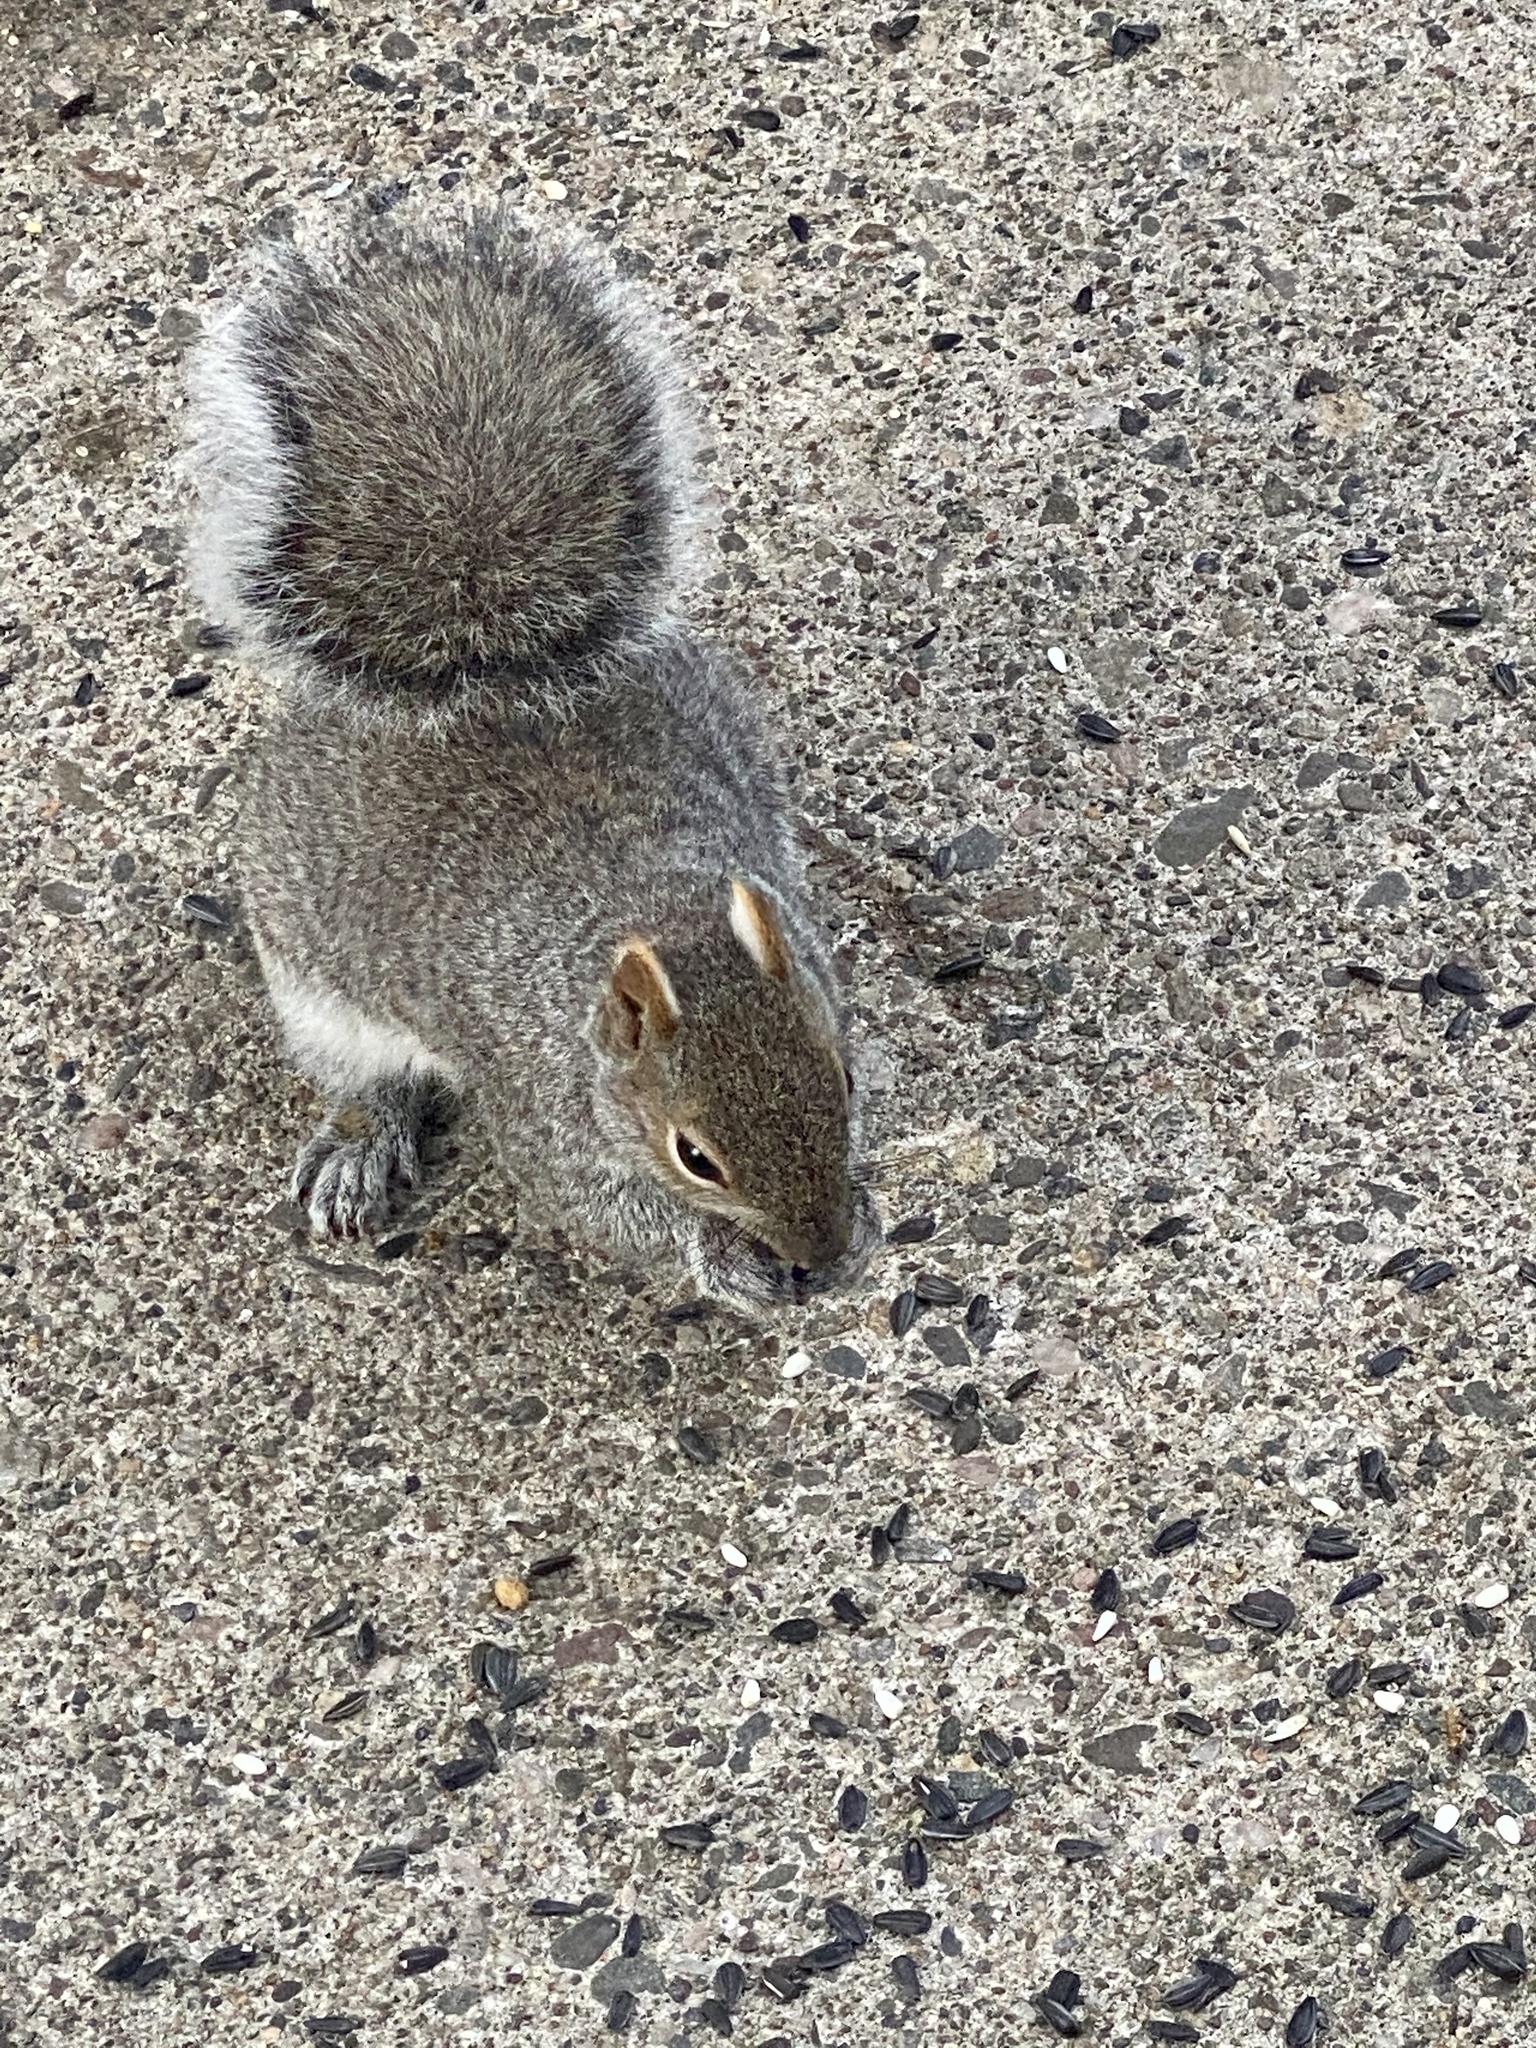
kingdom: Animalia
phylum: Chordata
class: Mammalia
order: Rodentia
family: Sciuridae
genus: Sciurus
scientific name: Sciurus carolinensis
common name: Eastern gray squirrel
